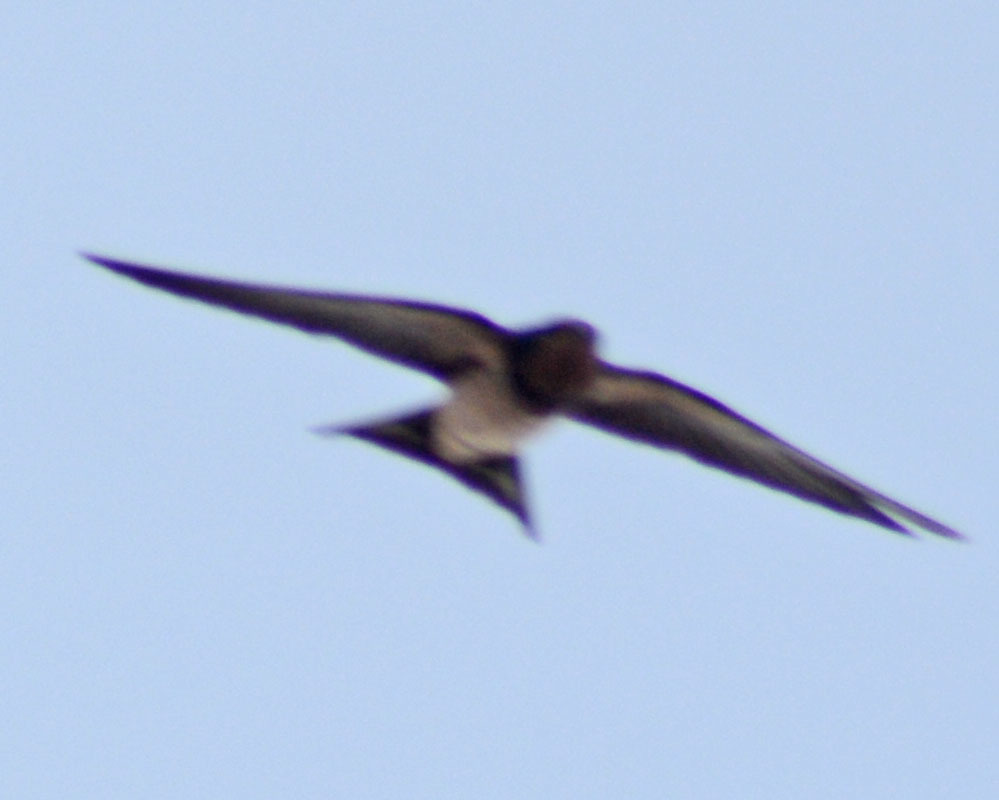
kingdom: Animalia
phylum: Chordata
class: Aves
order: Passeriformes
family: Hirundinidae
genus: Hirundo
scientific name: Hirundo rustica
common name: Barn swallow
